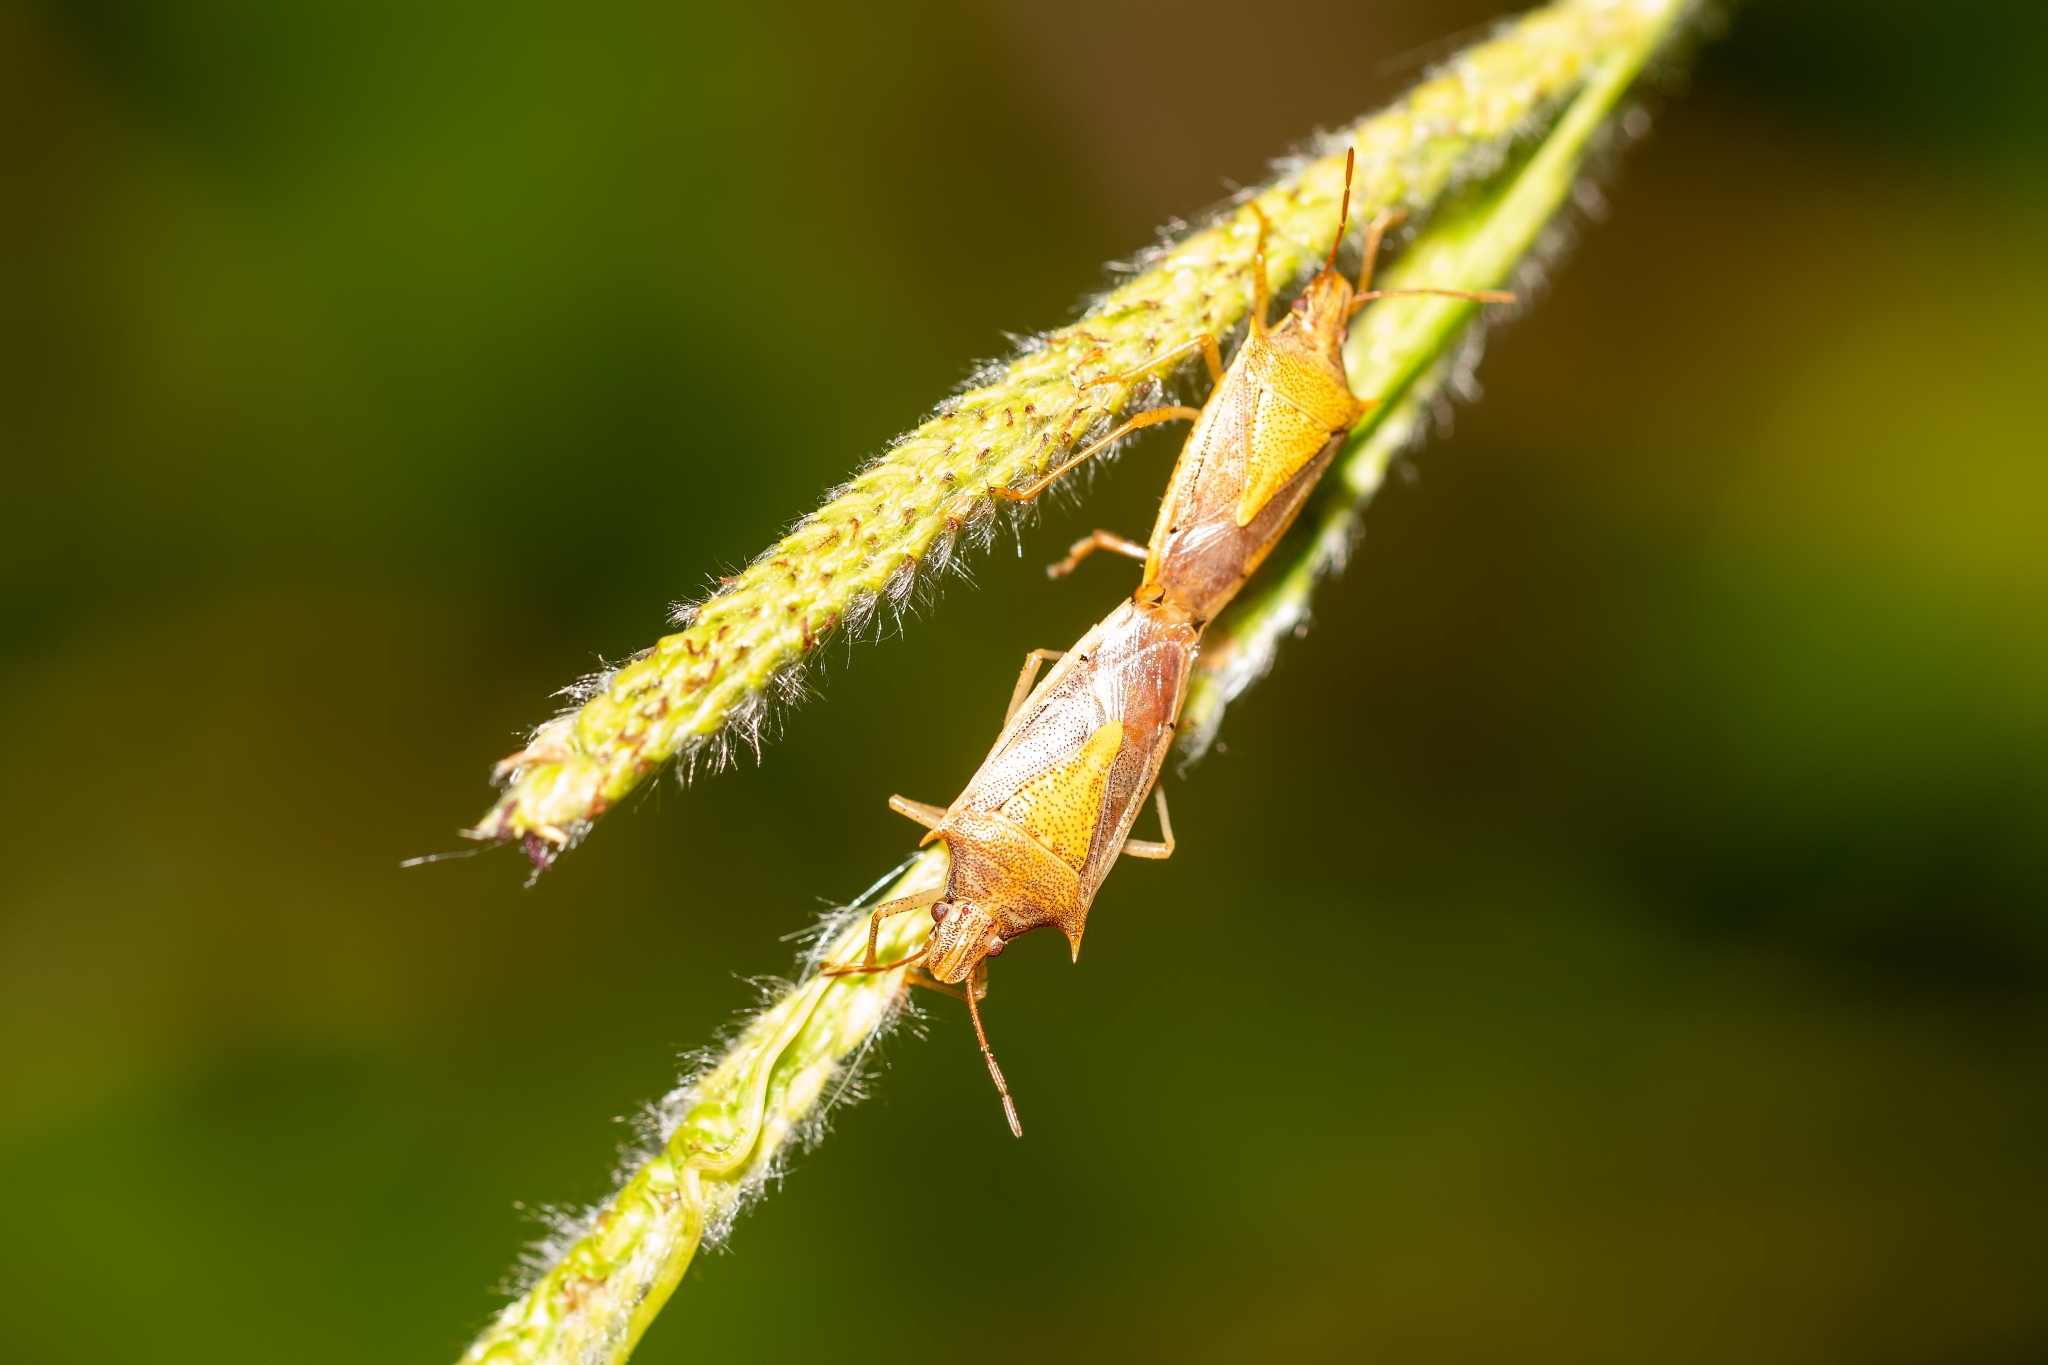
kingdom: Animalia
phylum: Arthropoda
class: Insecta
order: Hemiptera
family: Pentatomidae
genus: Oebalus
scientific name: Oebalus pugnax
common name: Rice stink bug
